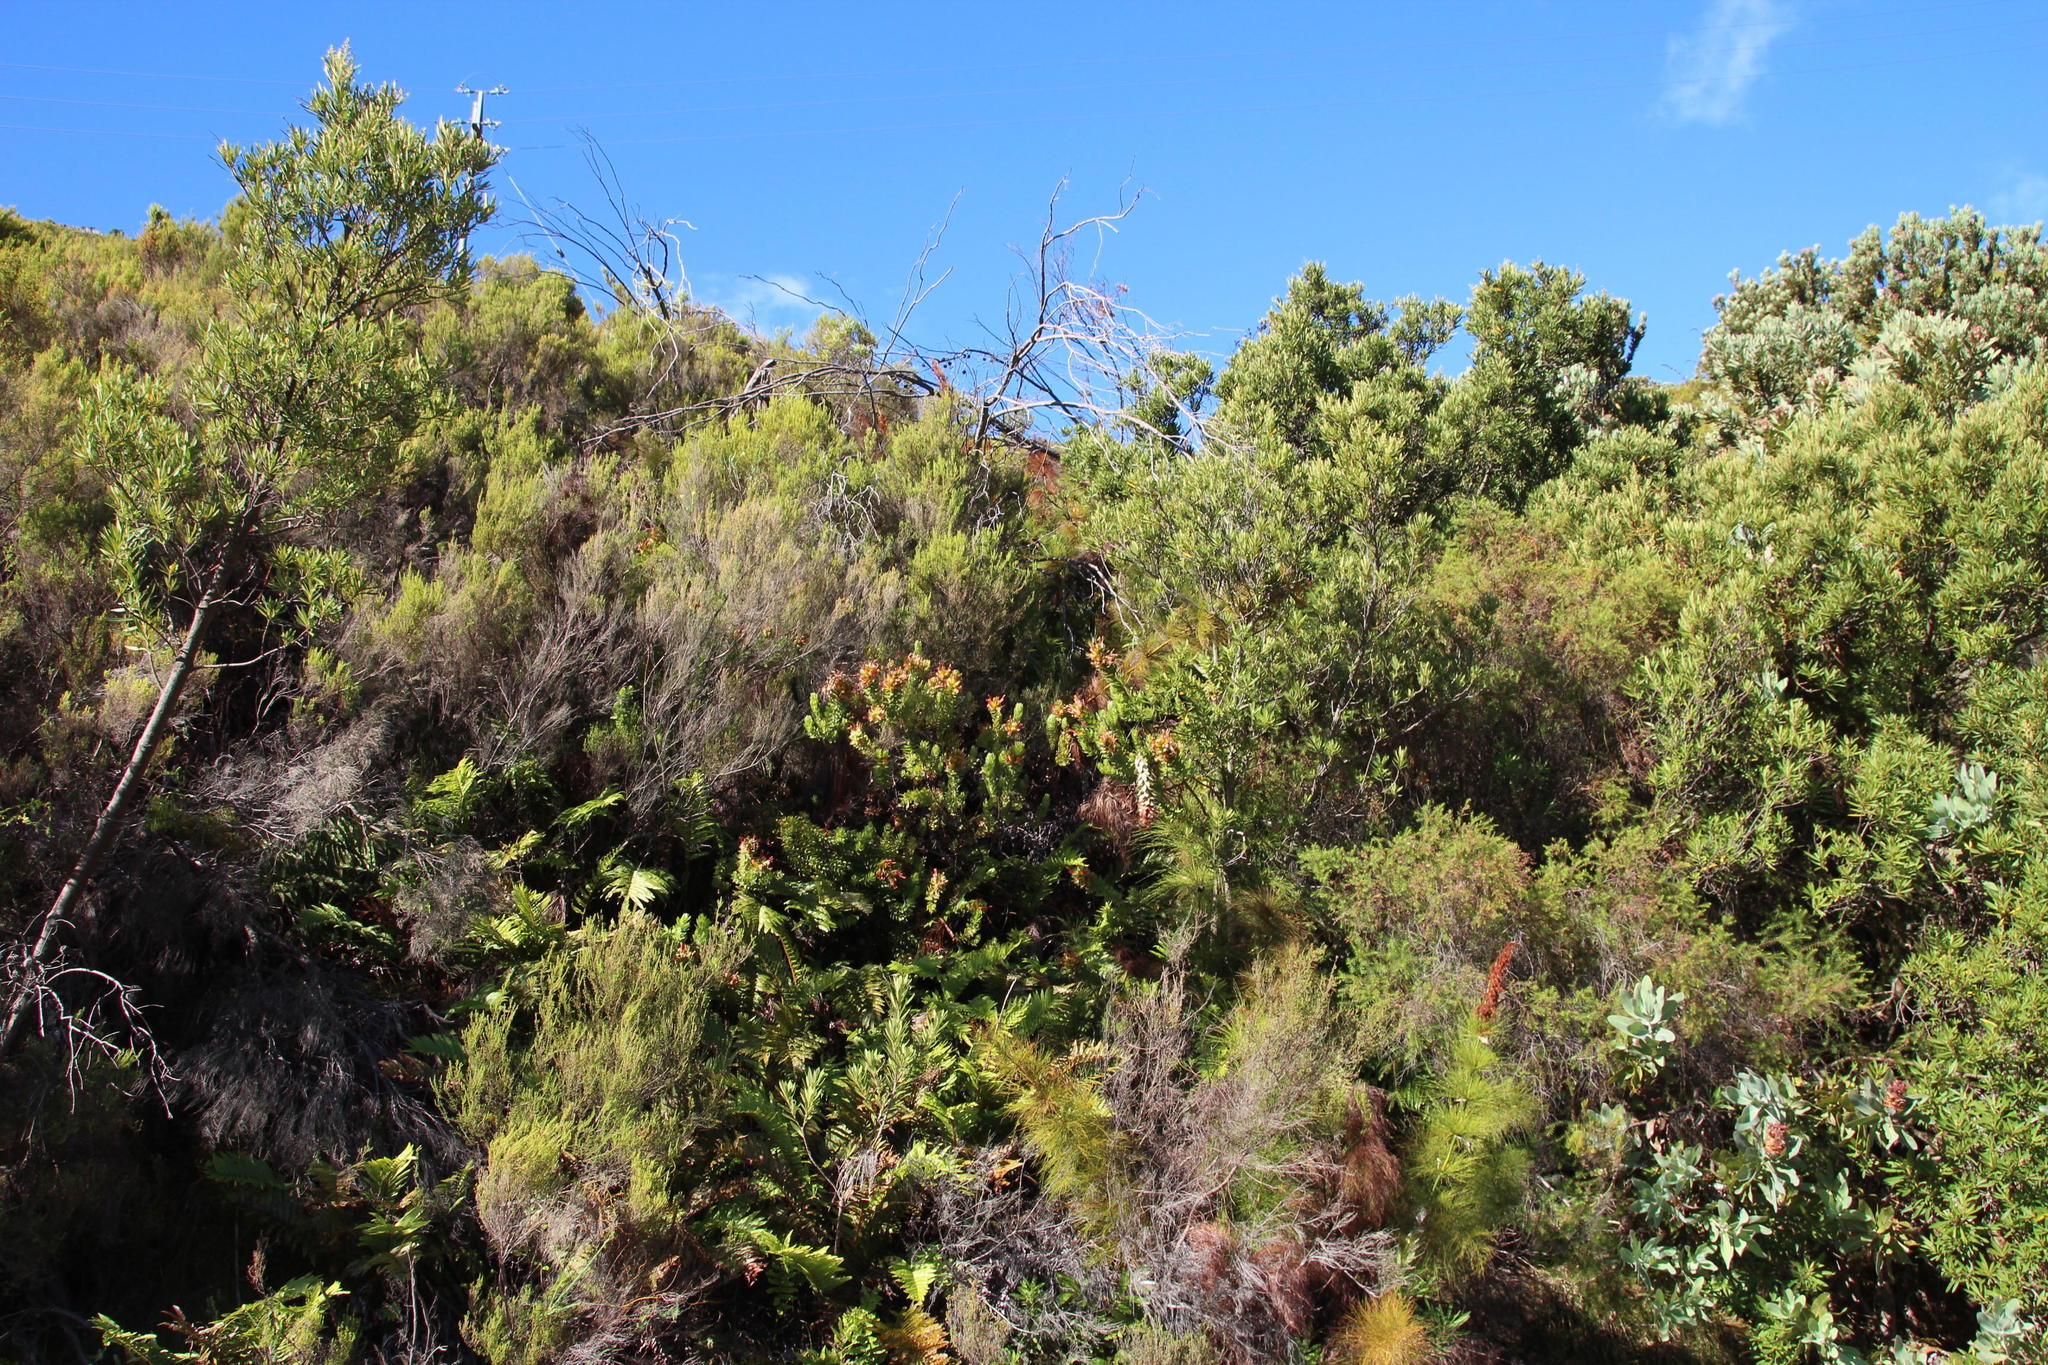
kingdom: Plantae
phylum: Tracheophyta
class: Magnoliopsida
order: Proteales
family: Proteaceae
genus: Mimetes
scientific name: Mimetes hirtus
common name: Marsh pagoda
